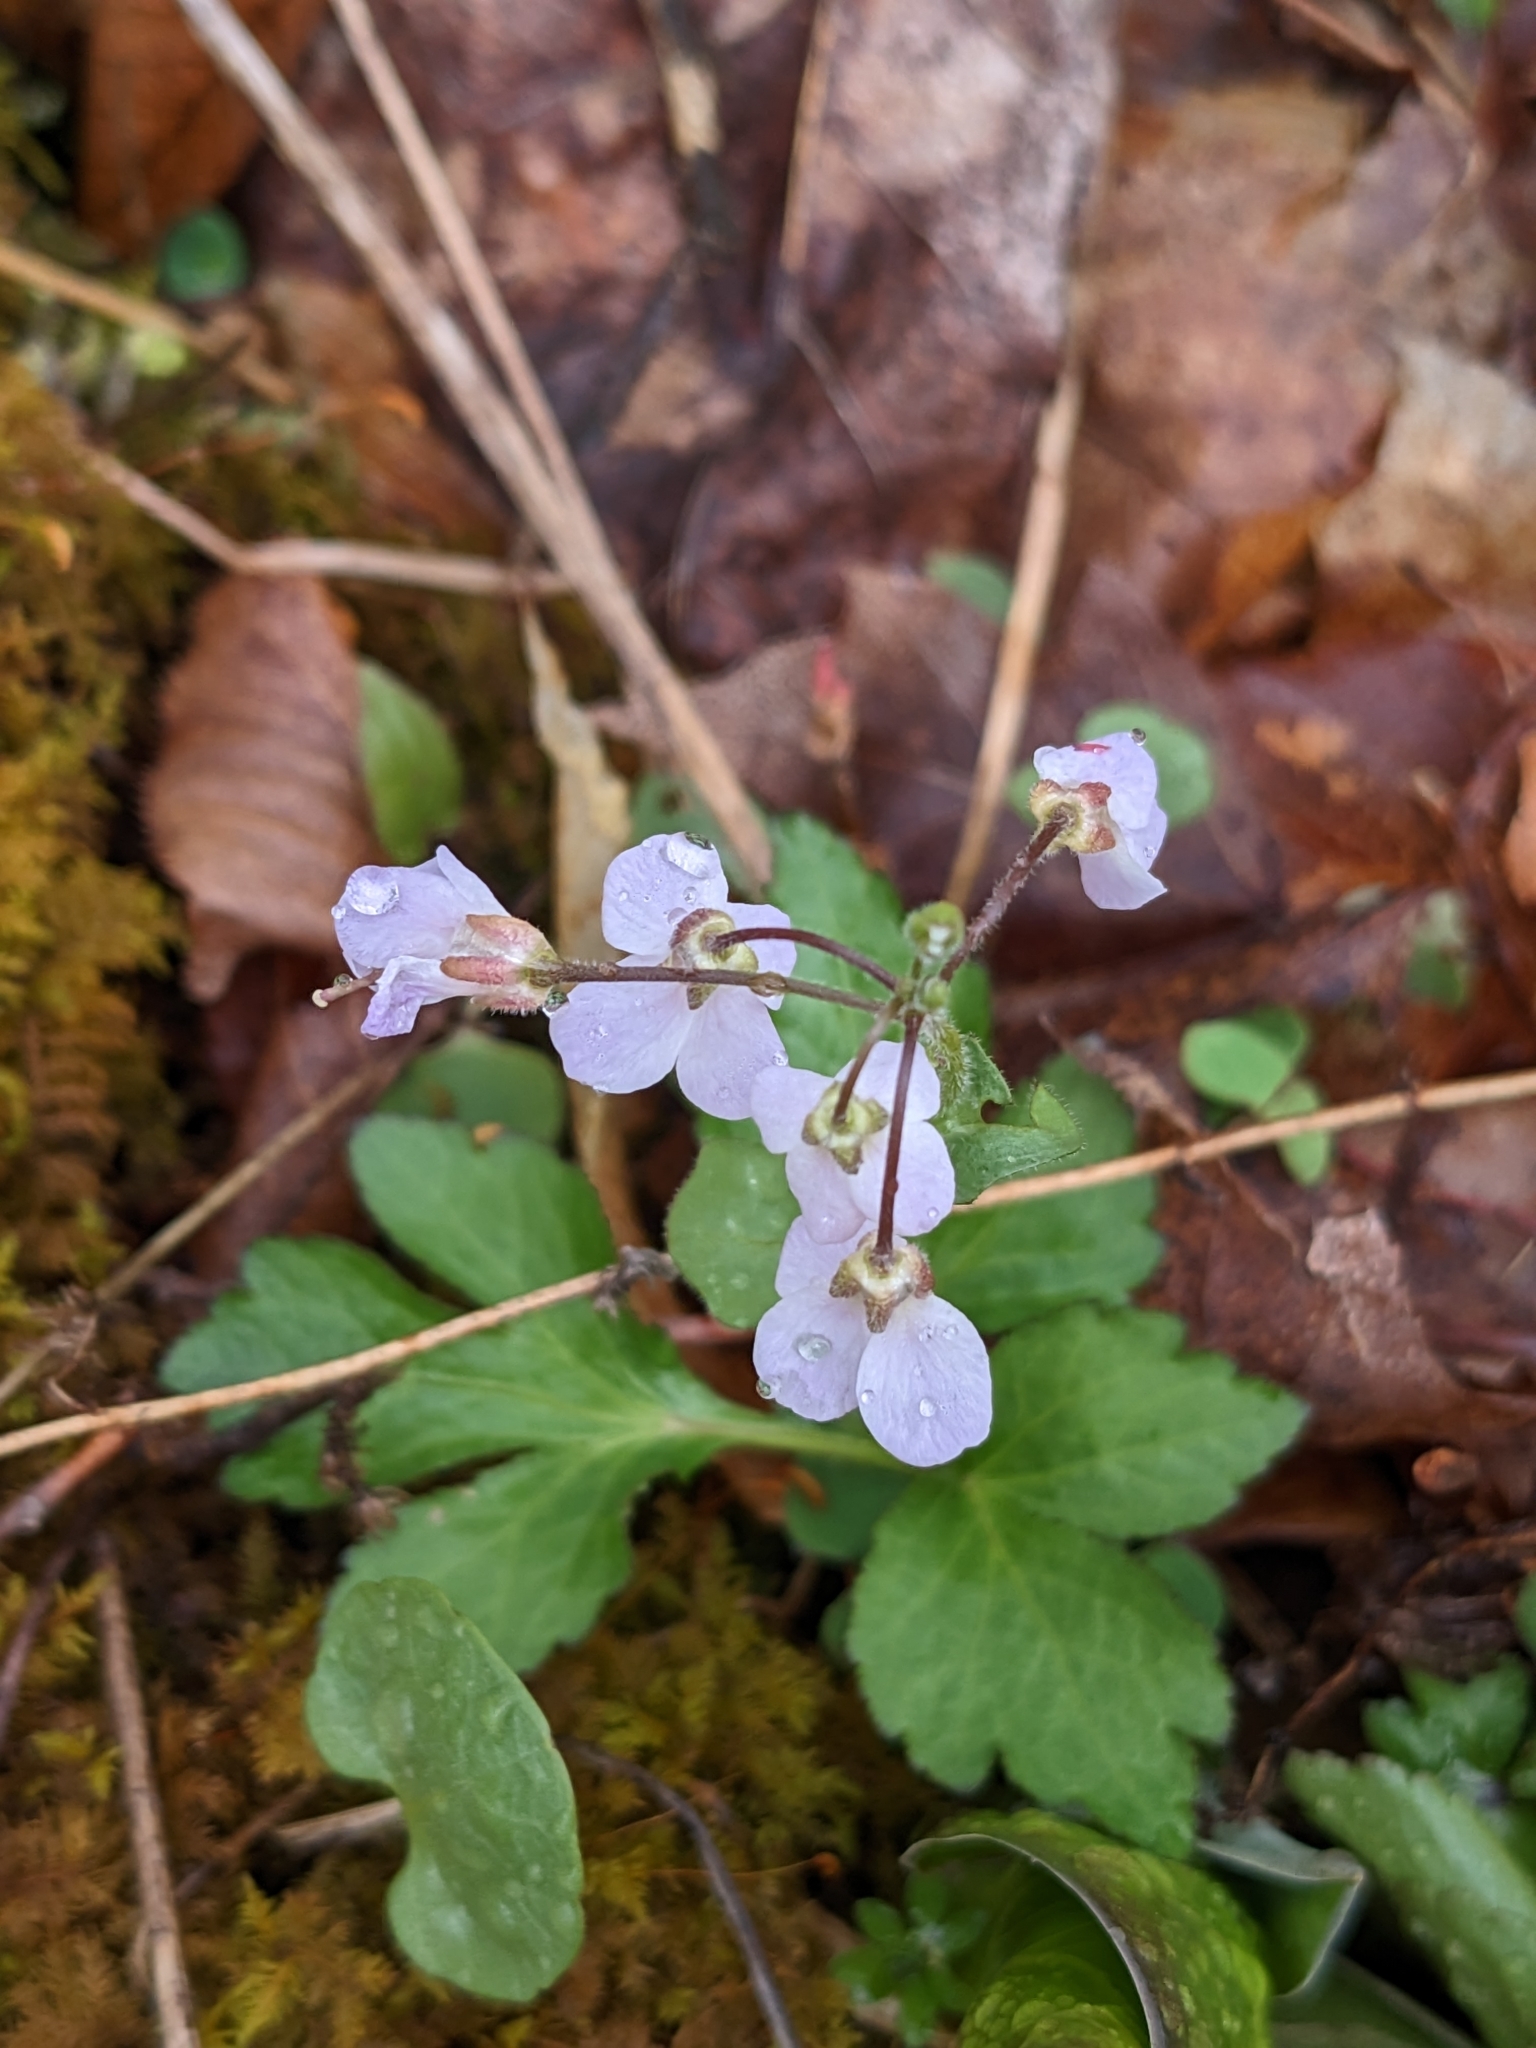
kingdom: Plantae
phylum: Tracheophyta
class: Magnoliopsida
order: Brassicales
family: Brassicaceae
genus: Cardamine
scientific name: Cardamine douglassii
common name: Purple cress
